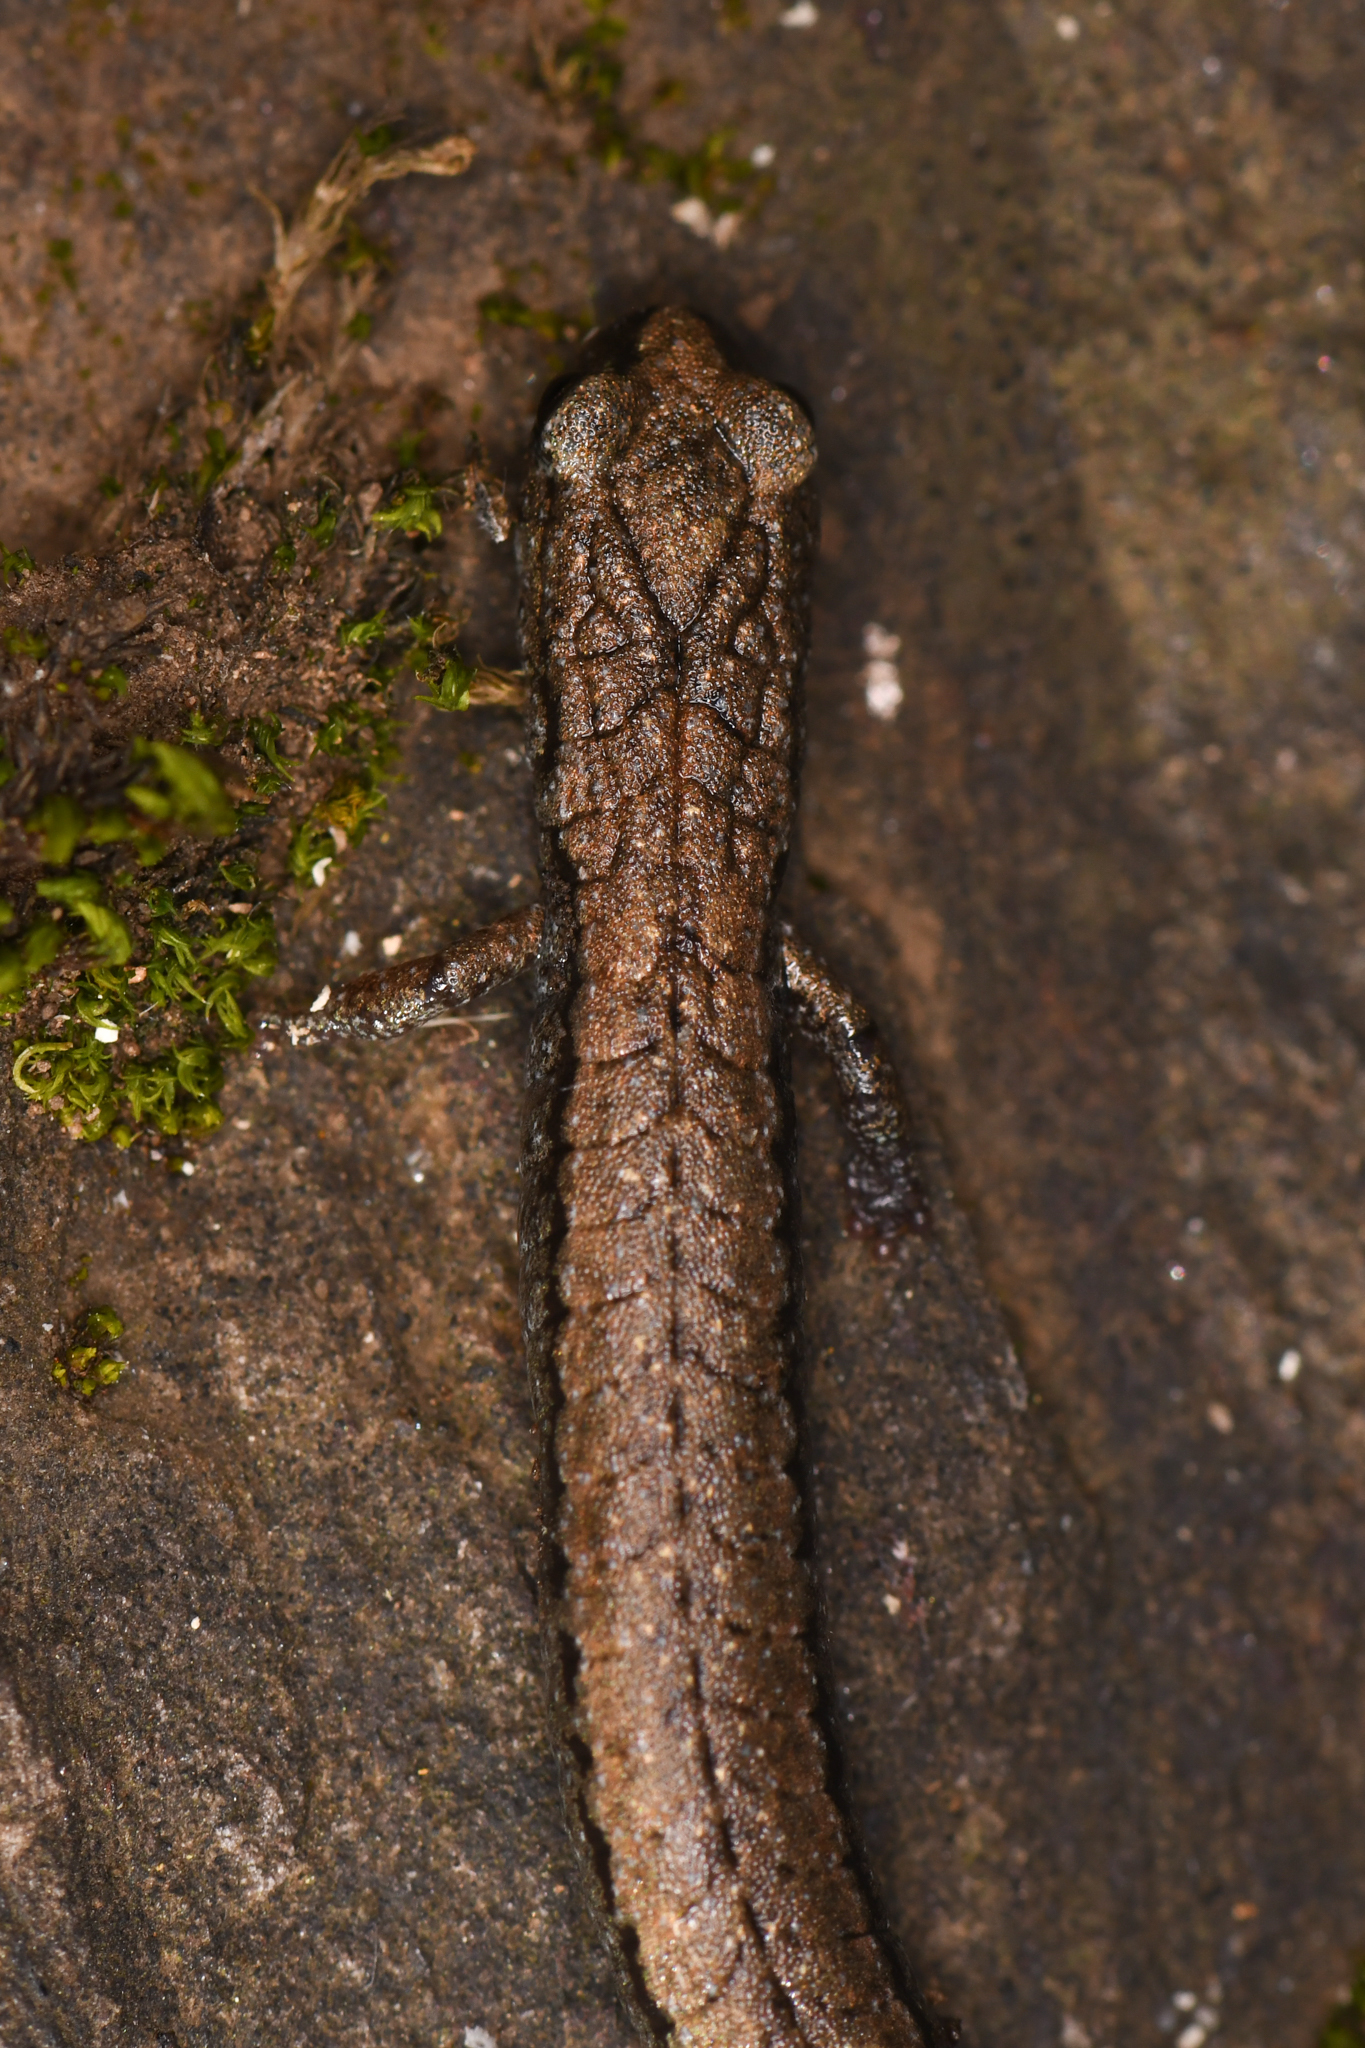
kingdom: Animalia
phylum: Chordata
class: Amphibia
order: Caudata
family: Plethodontidae
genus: Batrachoseps
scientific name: Batrachoseps kawia
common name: Sequoia slender salamander
